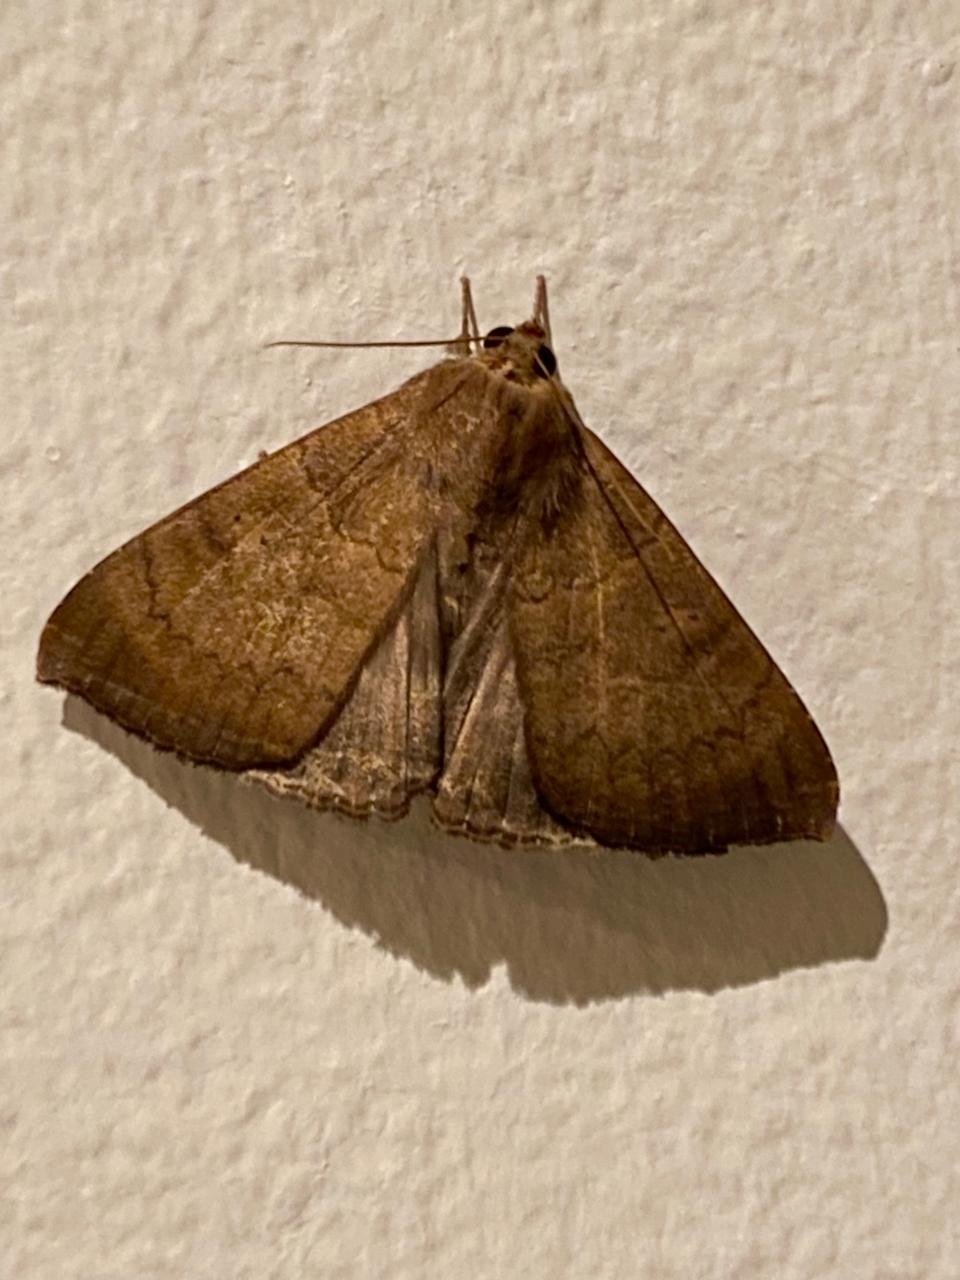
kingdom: Animalia
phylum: Arthropoda
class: Insecta
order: Lepidoptera
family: Erebidae
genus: Achaea
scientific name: Achaea finita
